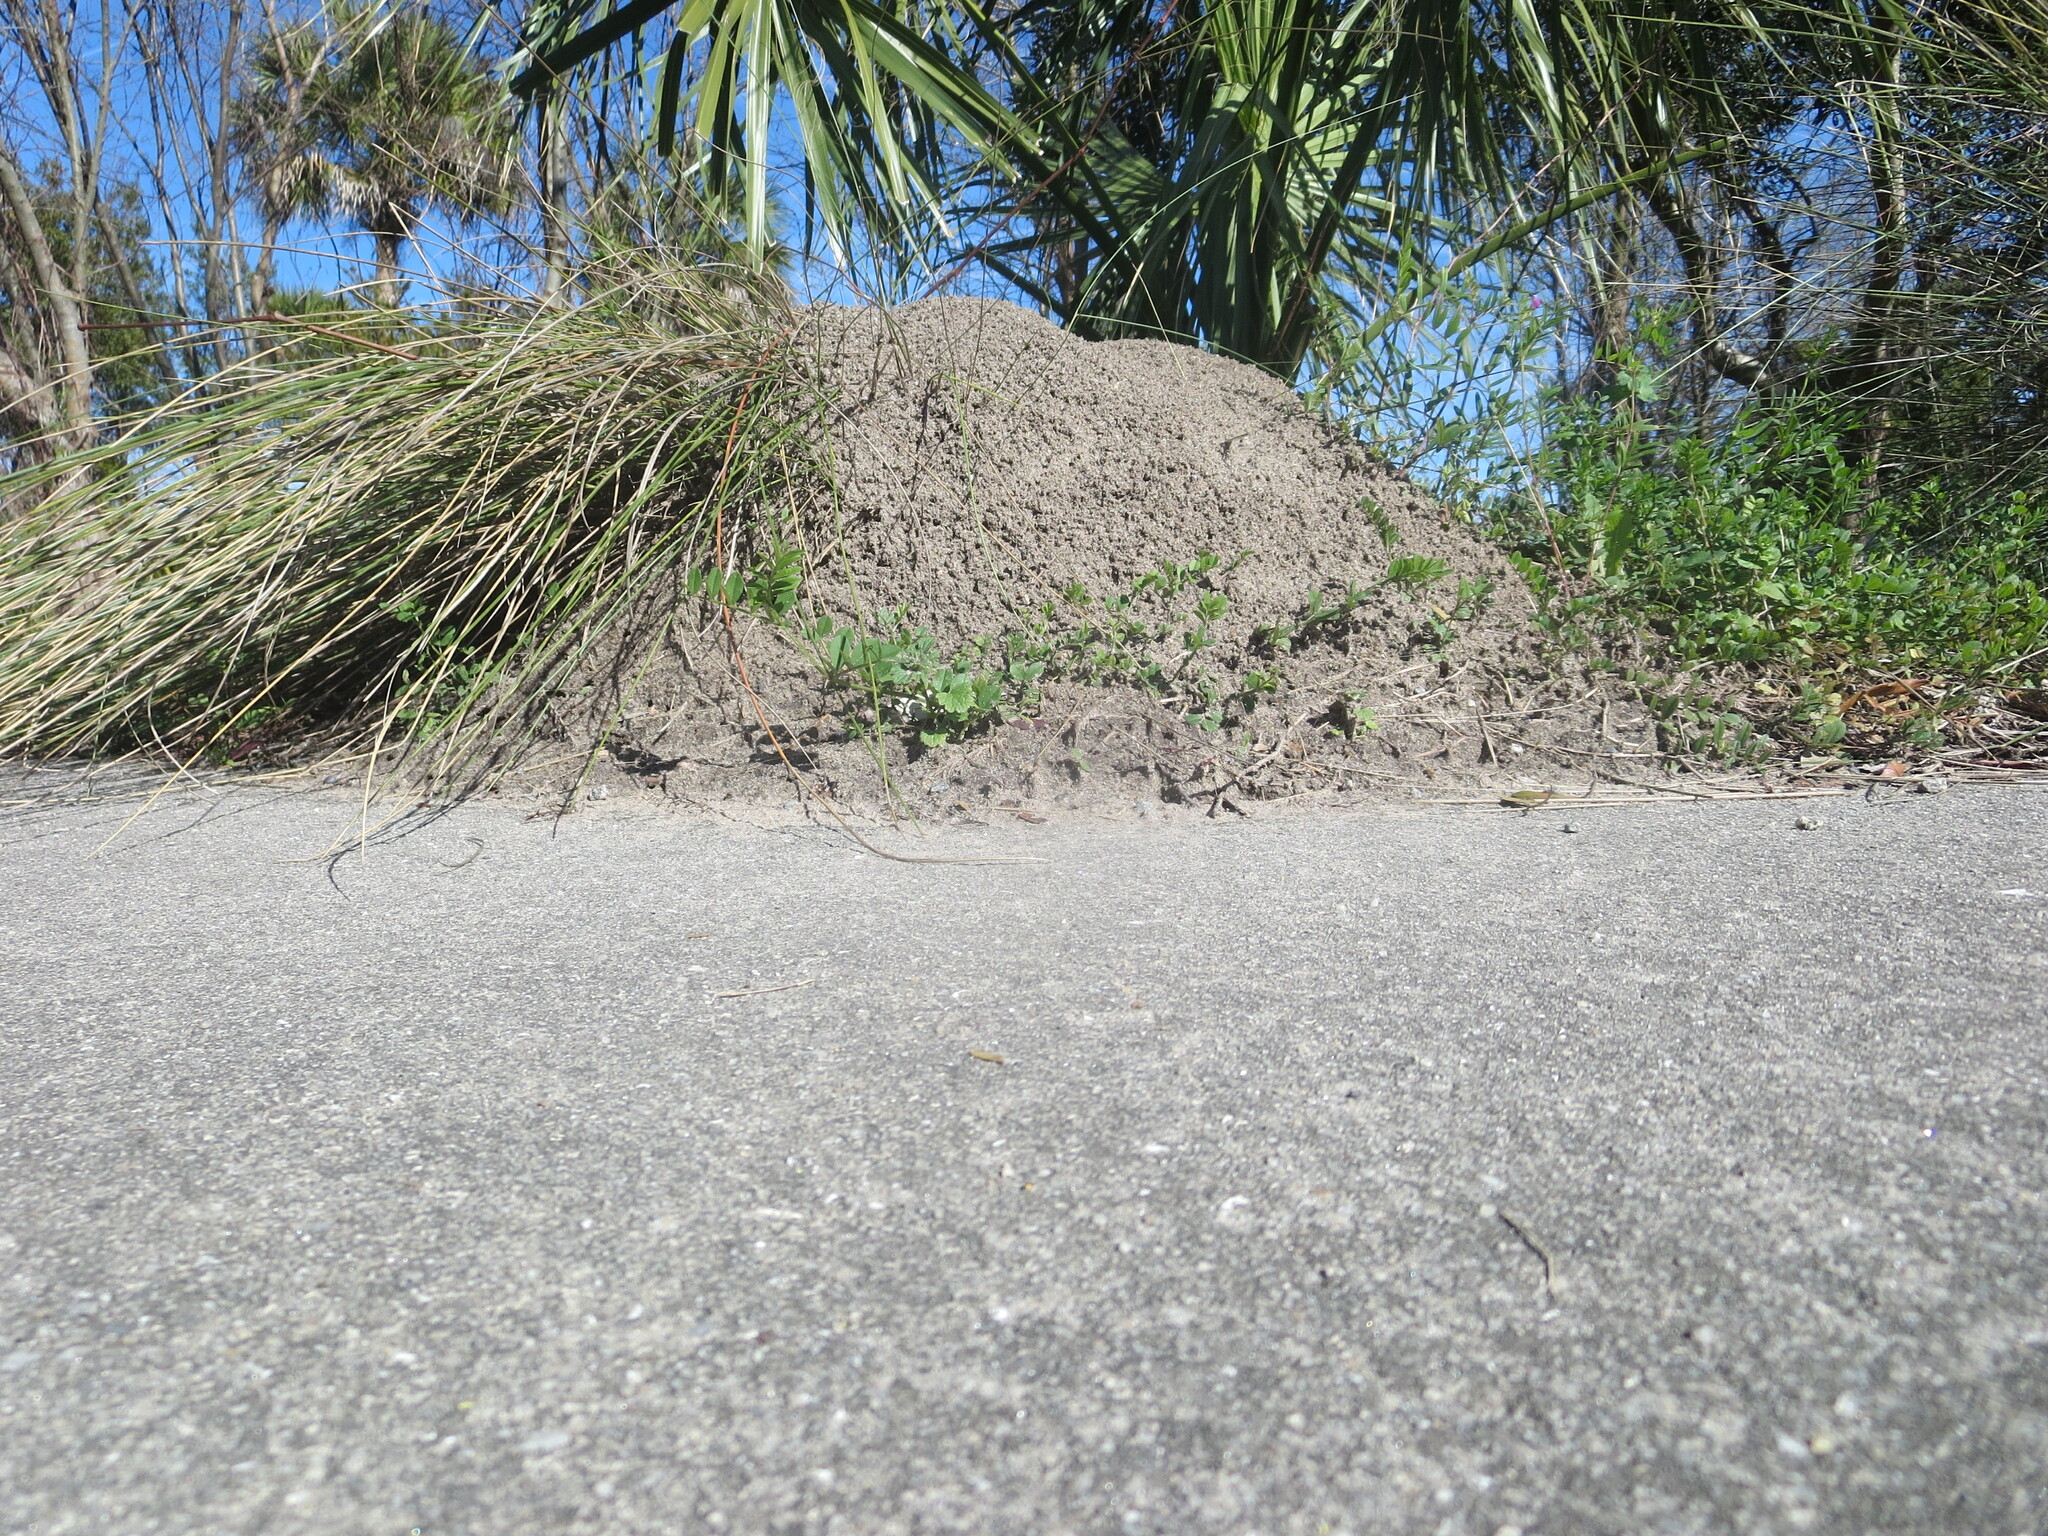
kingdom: Animalia
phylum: Arthropoda
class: Insecta
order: Hymenoptera
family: Formicidae
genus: Solenopsis
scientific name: Solenopsis invicta
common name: Red imported fire ant
